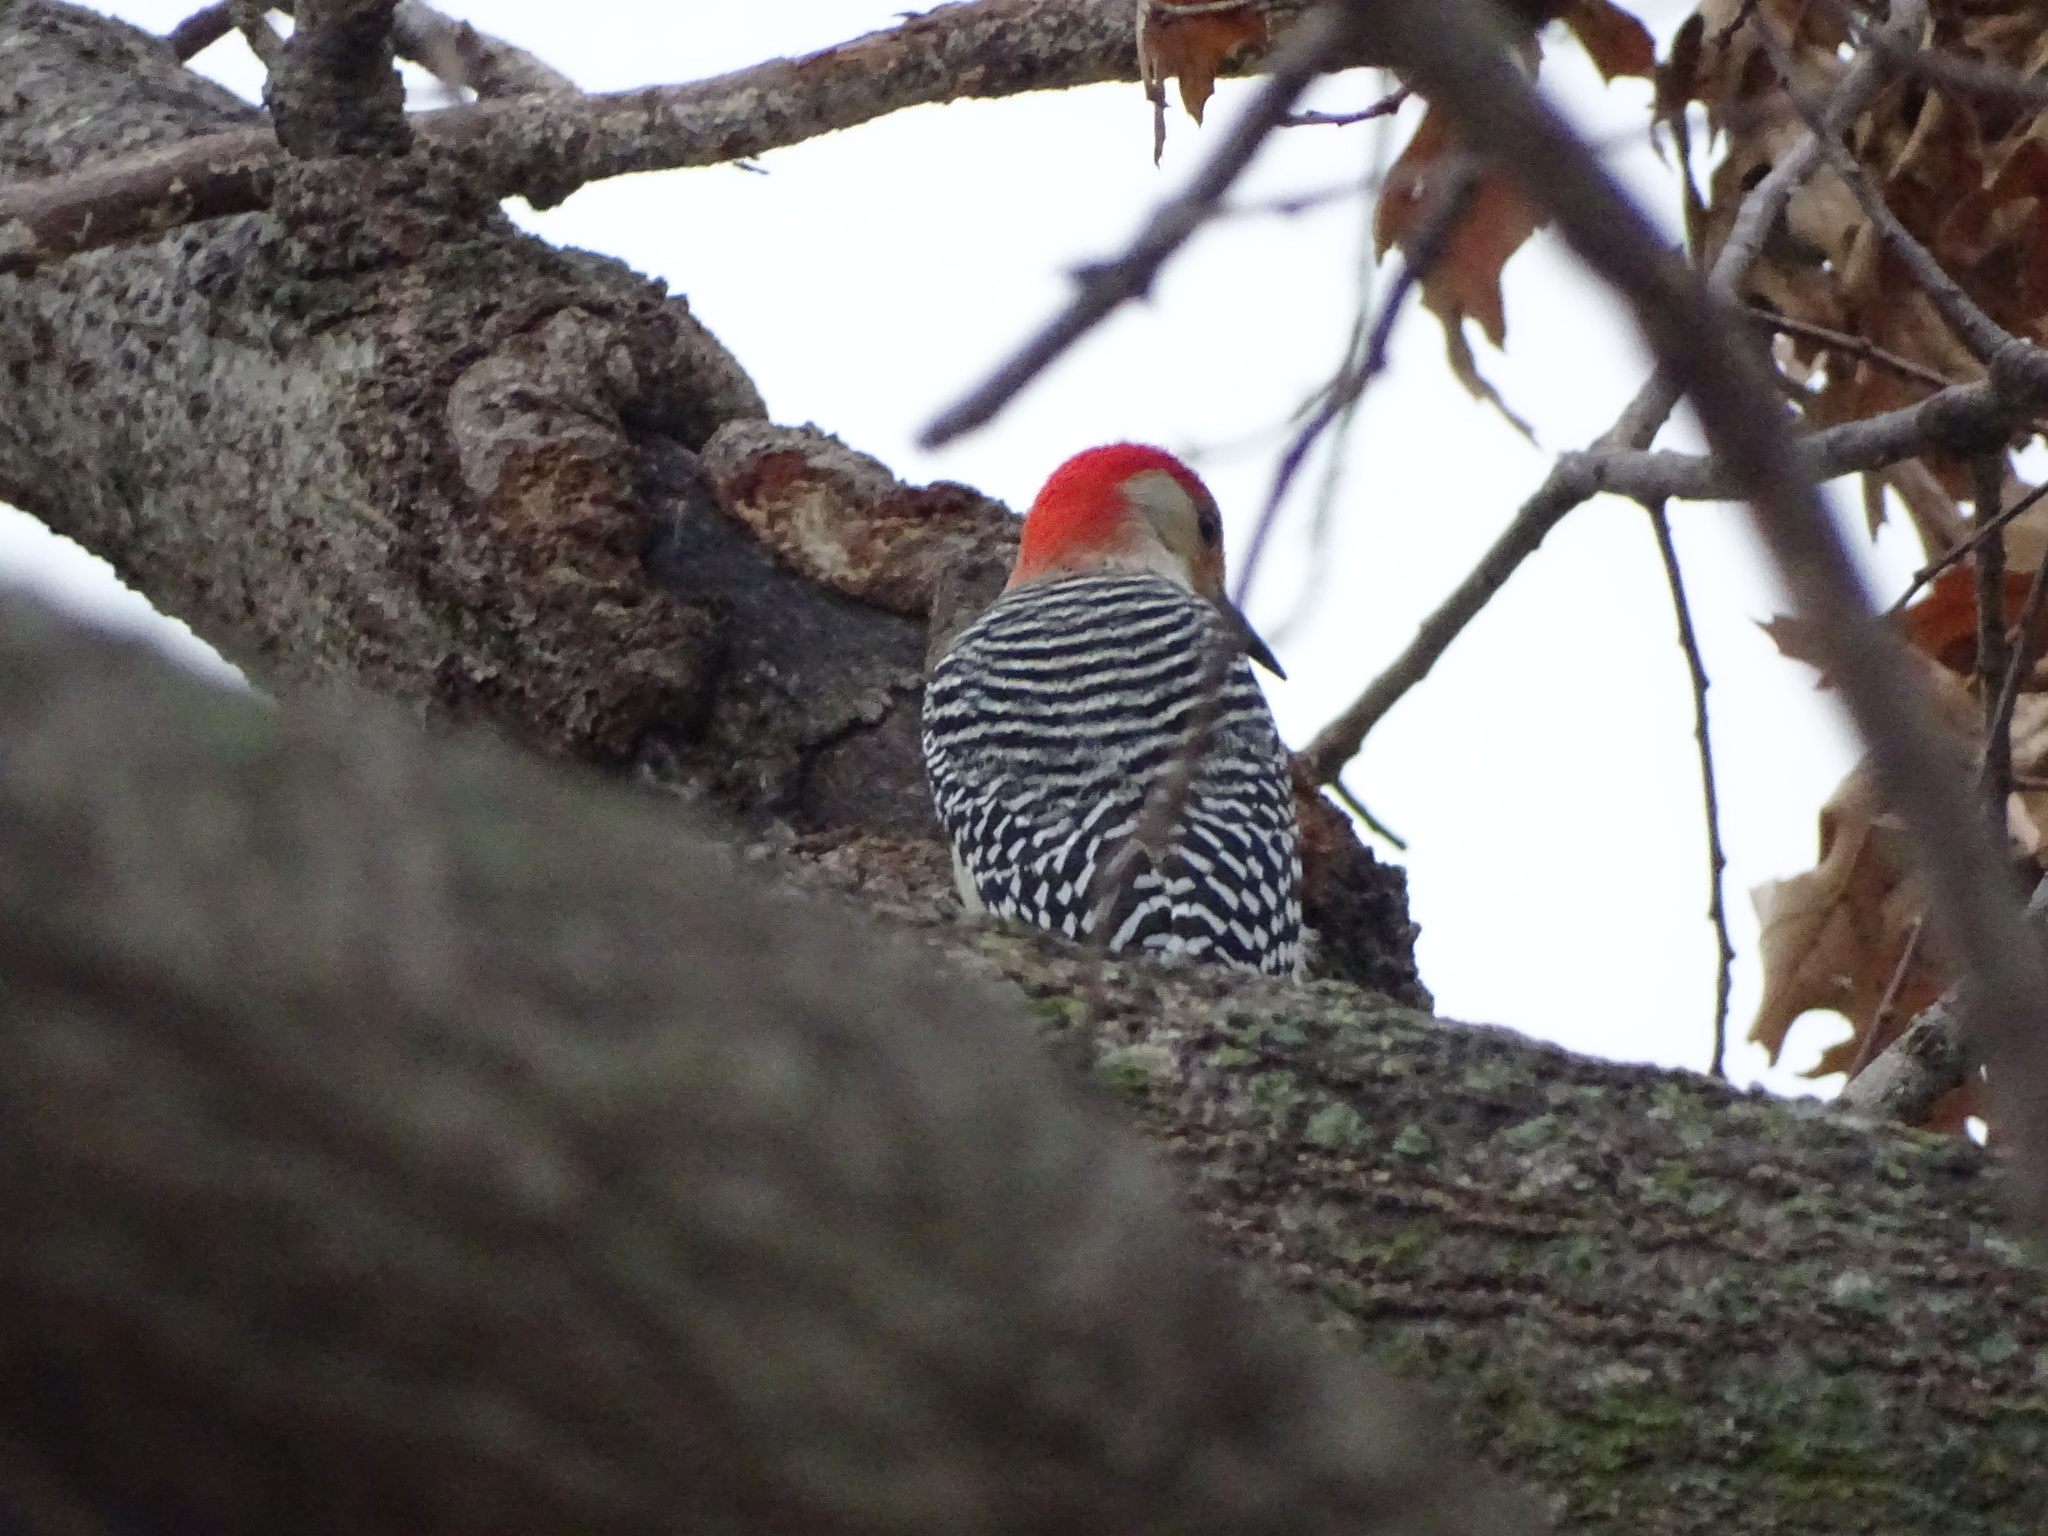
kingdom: Animalia
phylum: Chordata
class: Aves
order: Piciformes
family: Picidae
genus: Melanerpes
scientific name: Melanerpes carolinus
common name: Red-bellied woodpecker
